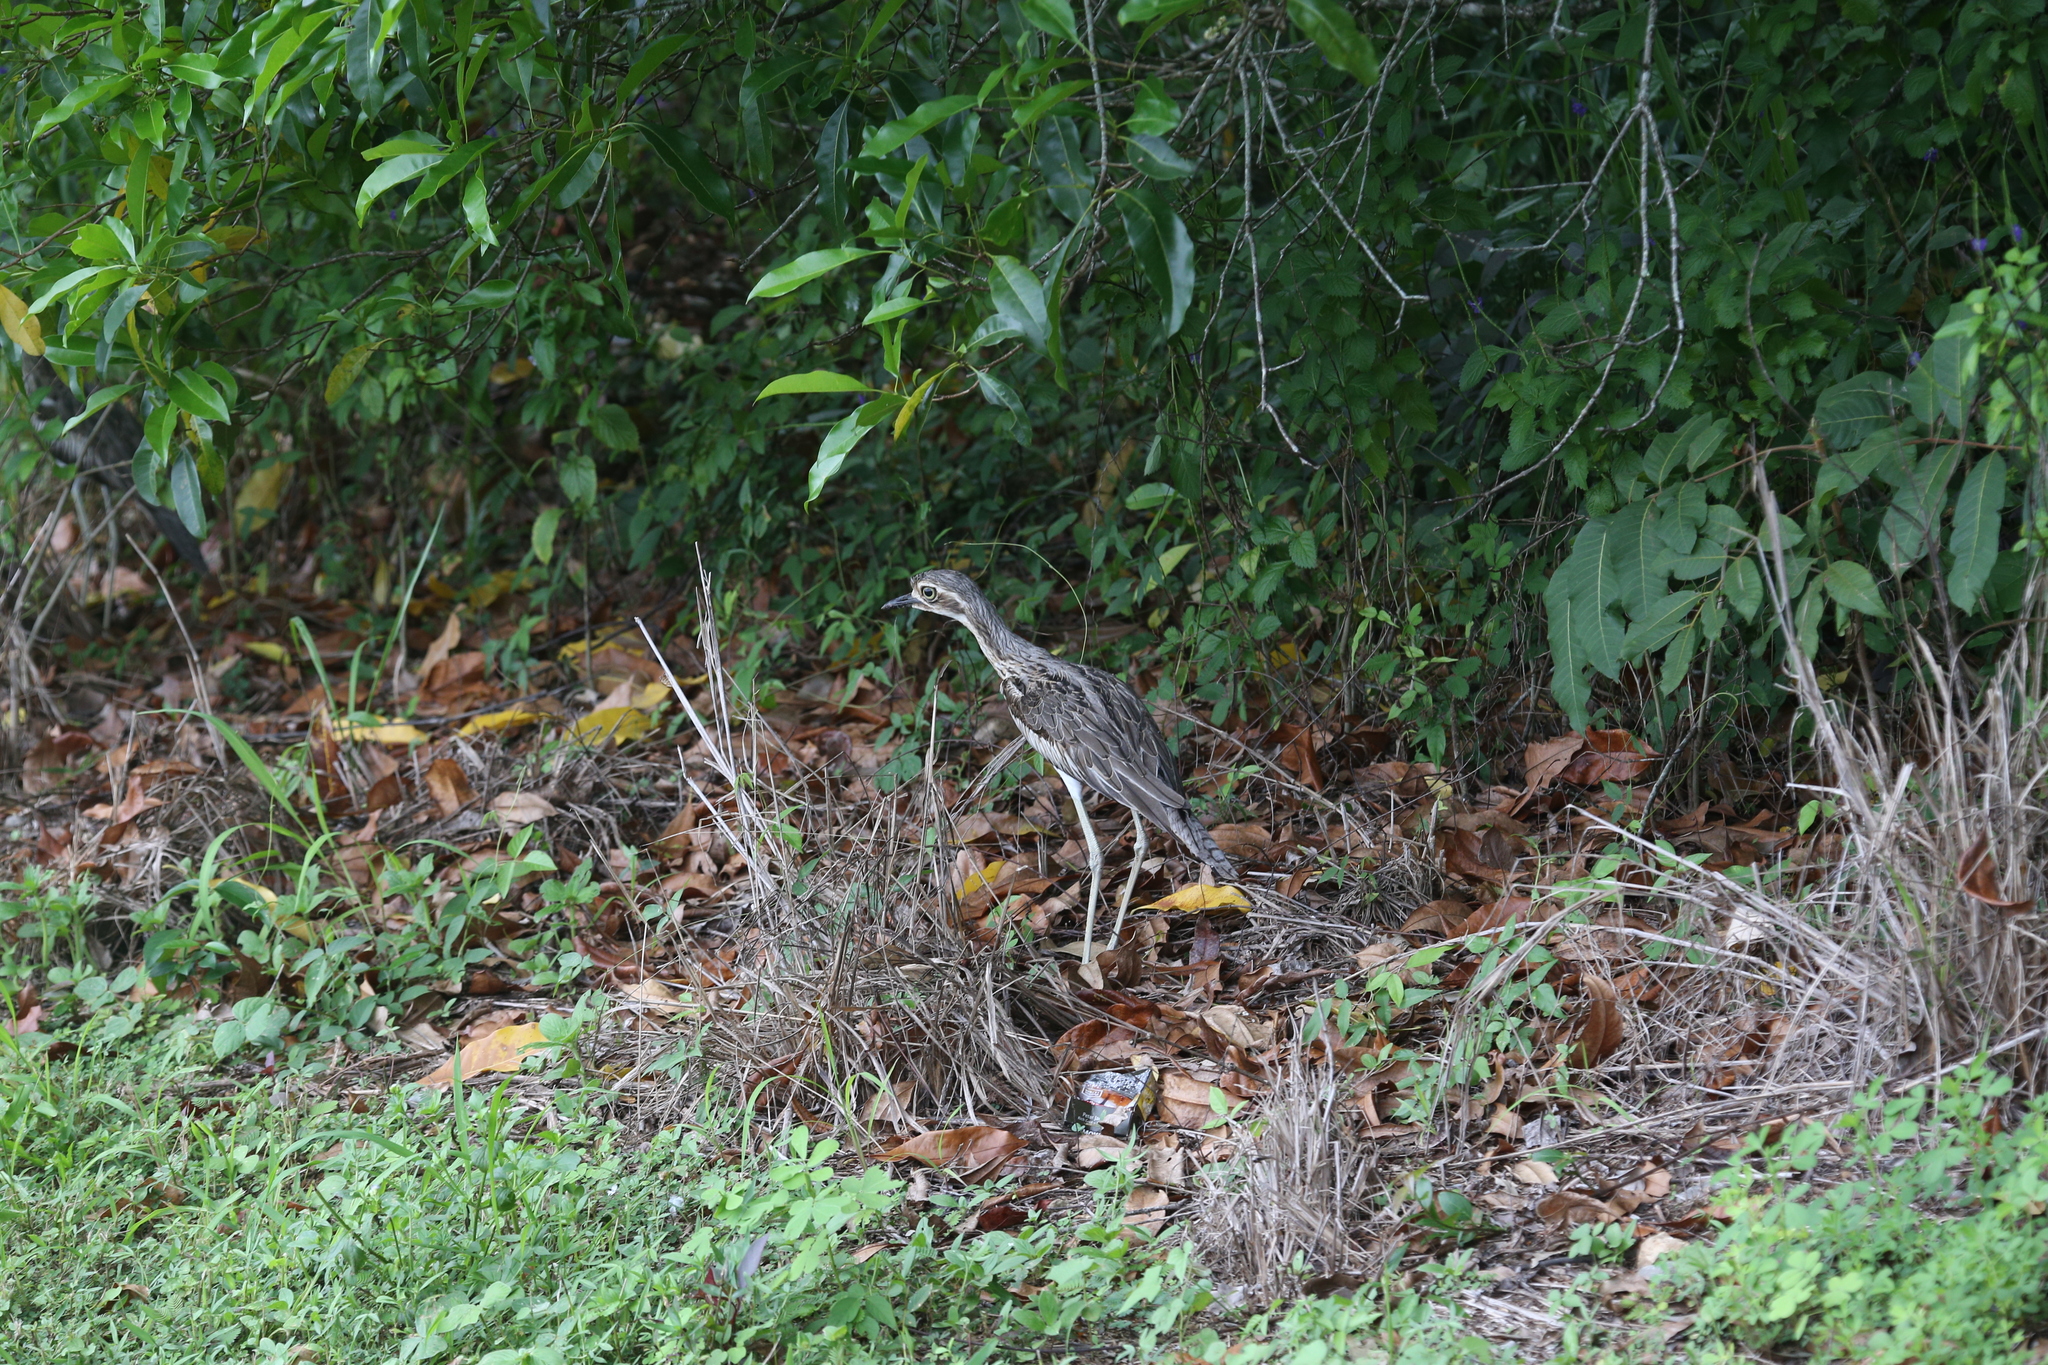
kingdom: Animalia
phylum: Chordata
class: Aves
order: Charadriiformes
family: Burhinidae
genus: Burhinus
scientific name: Burhinus grallarius
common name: Bush stone-curlew
